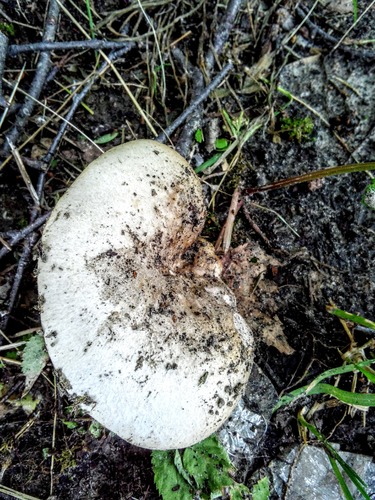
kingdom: Fungi
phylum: Basidiomycota
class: Agaricomycetes
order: Russulales
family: Russulaceae
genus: Russula
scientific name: Russula
